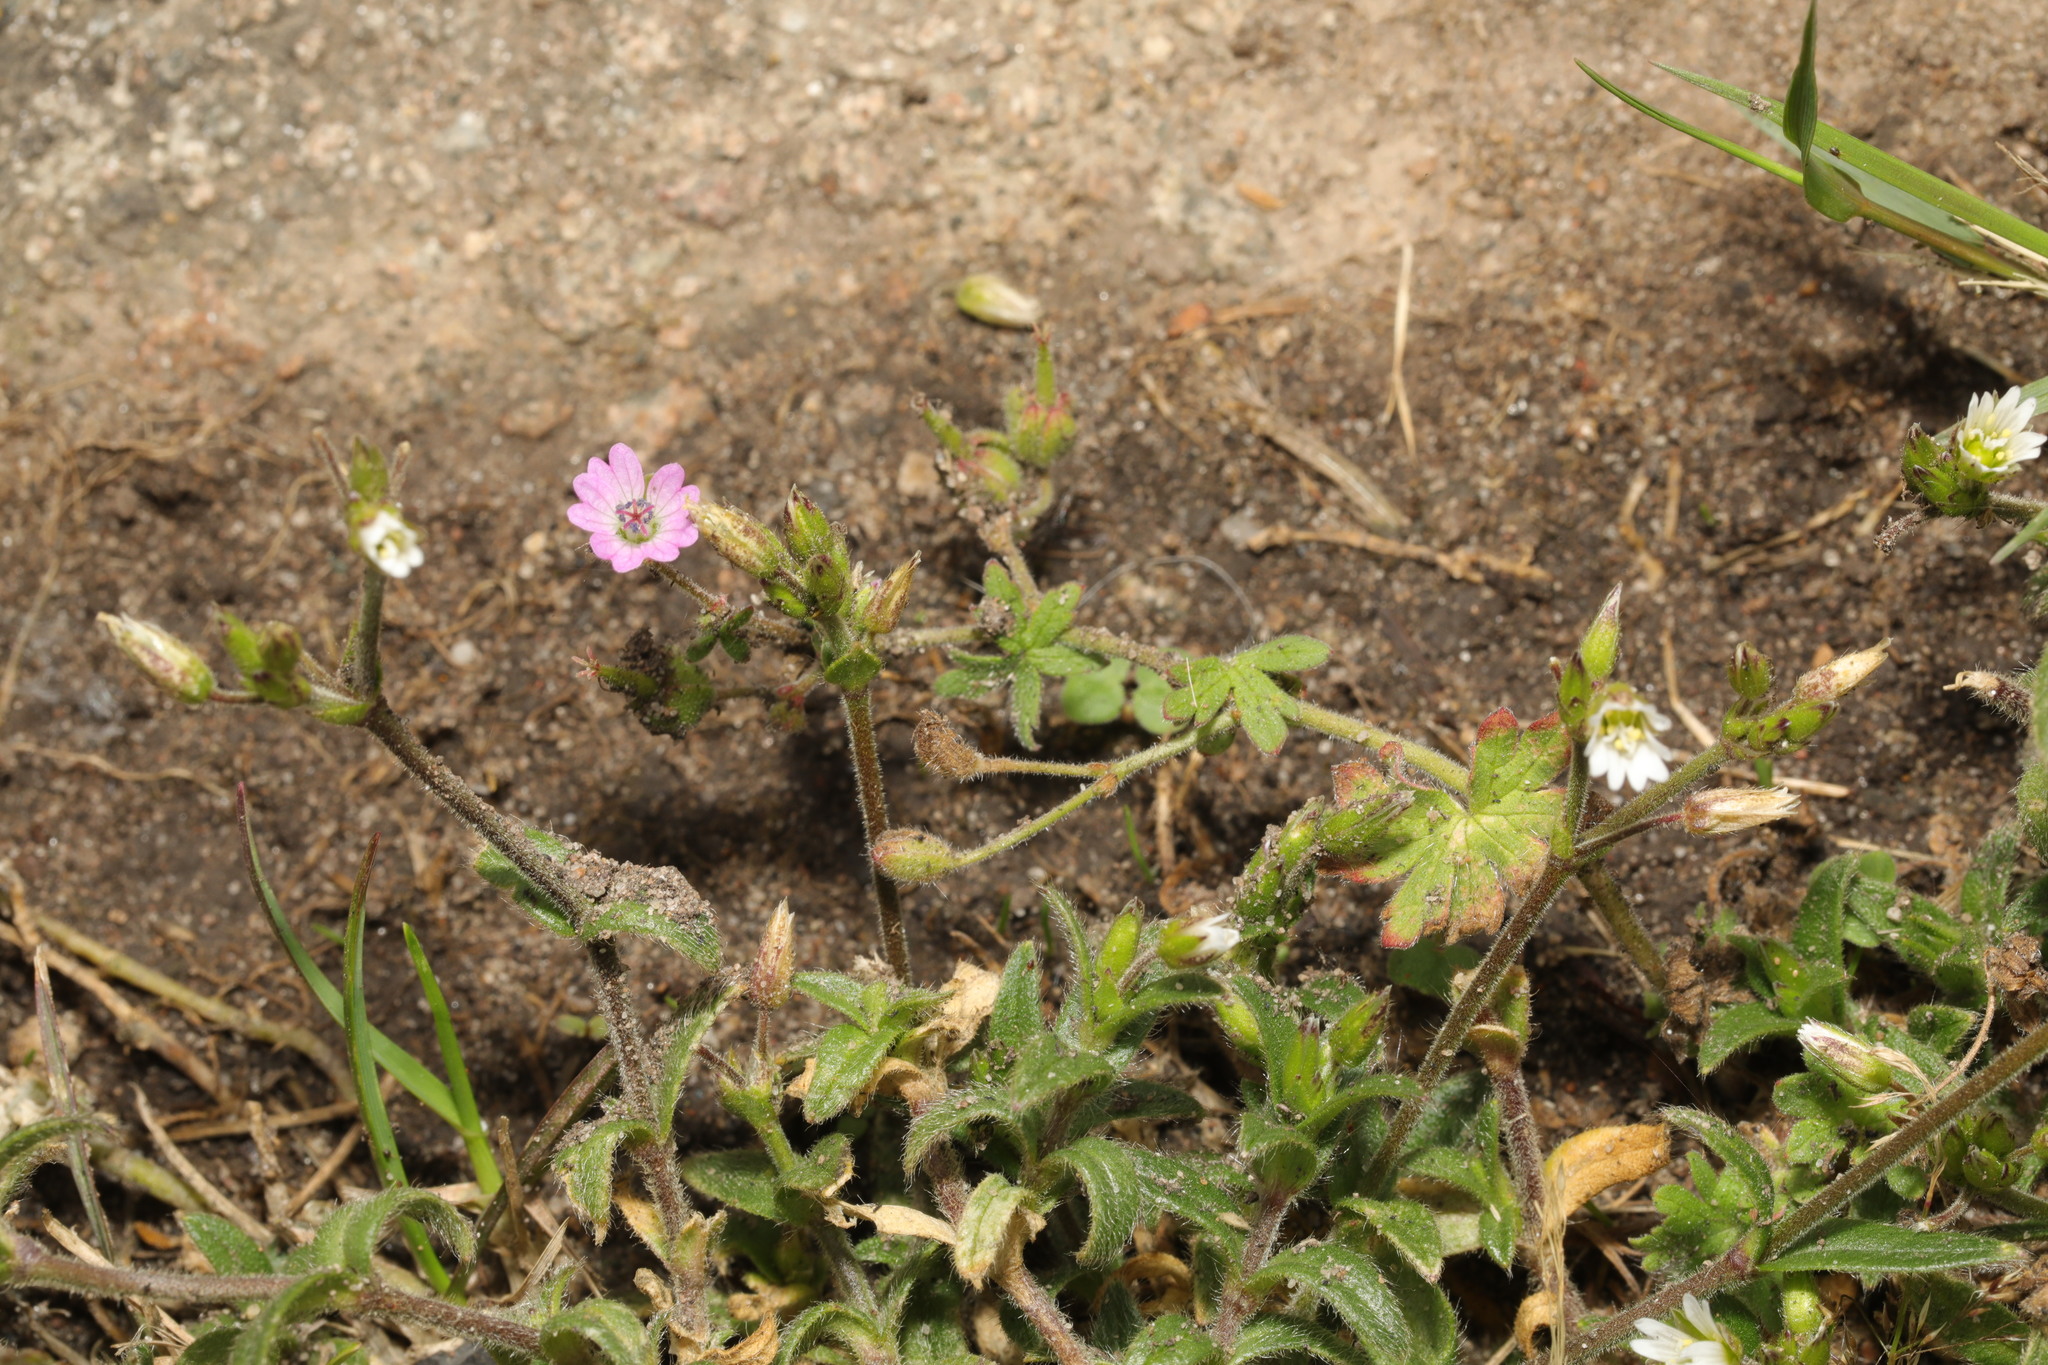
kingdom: Plantae
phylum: Tracheophyta
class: Magnoliopsida
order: Geraniales
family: Geraniaceae
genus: Geranium
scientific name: Geranium molle
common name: Dove's-foot crane's-bill
